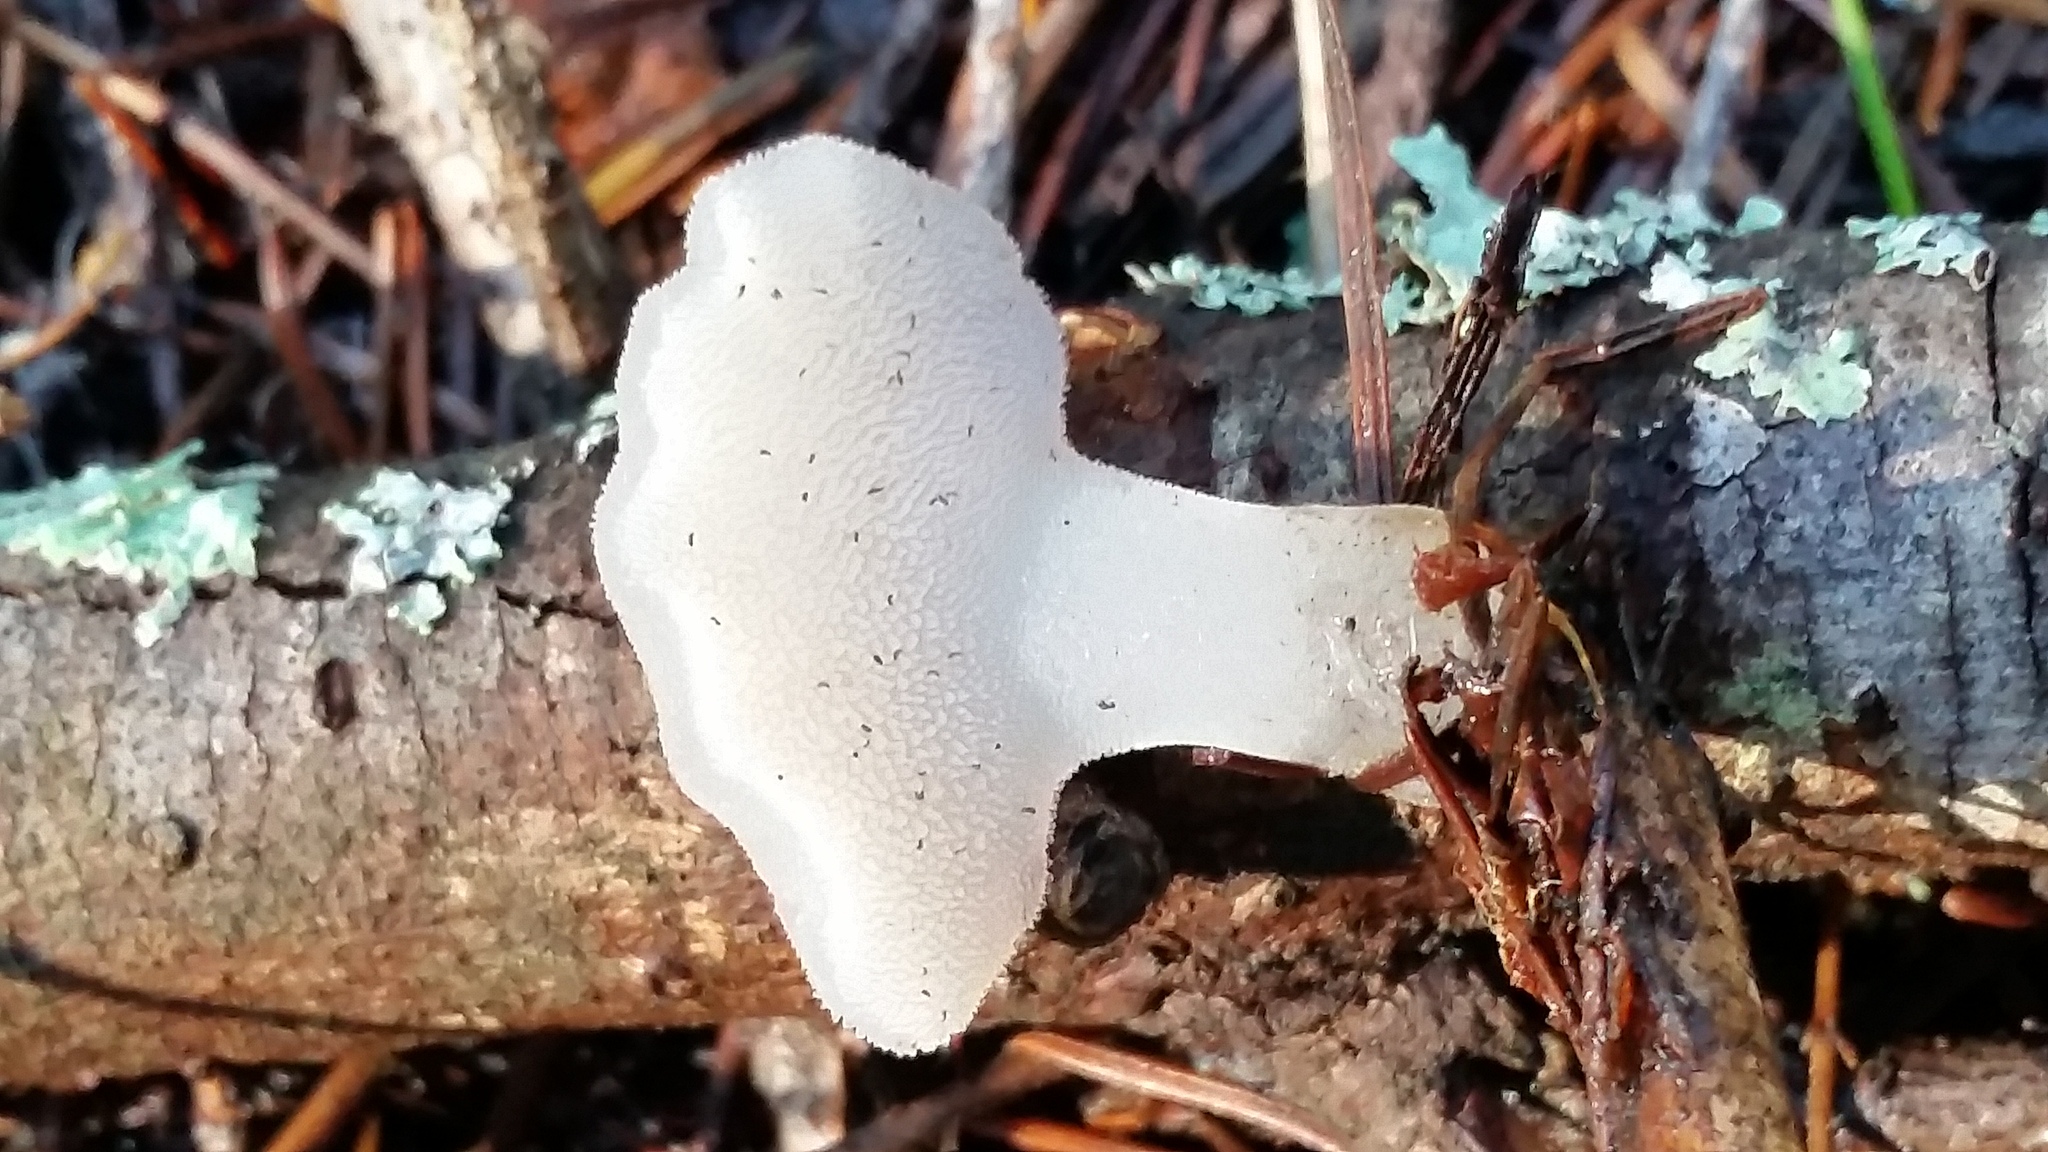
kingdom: Fungi
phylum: Basidiomycota
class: Agaricomycetes
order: Auriculariales
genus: Pseudohydnum
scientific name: Pseudohydnum gelatinosum
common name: Jelly tongue
